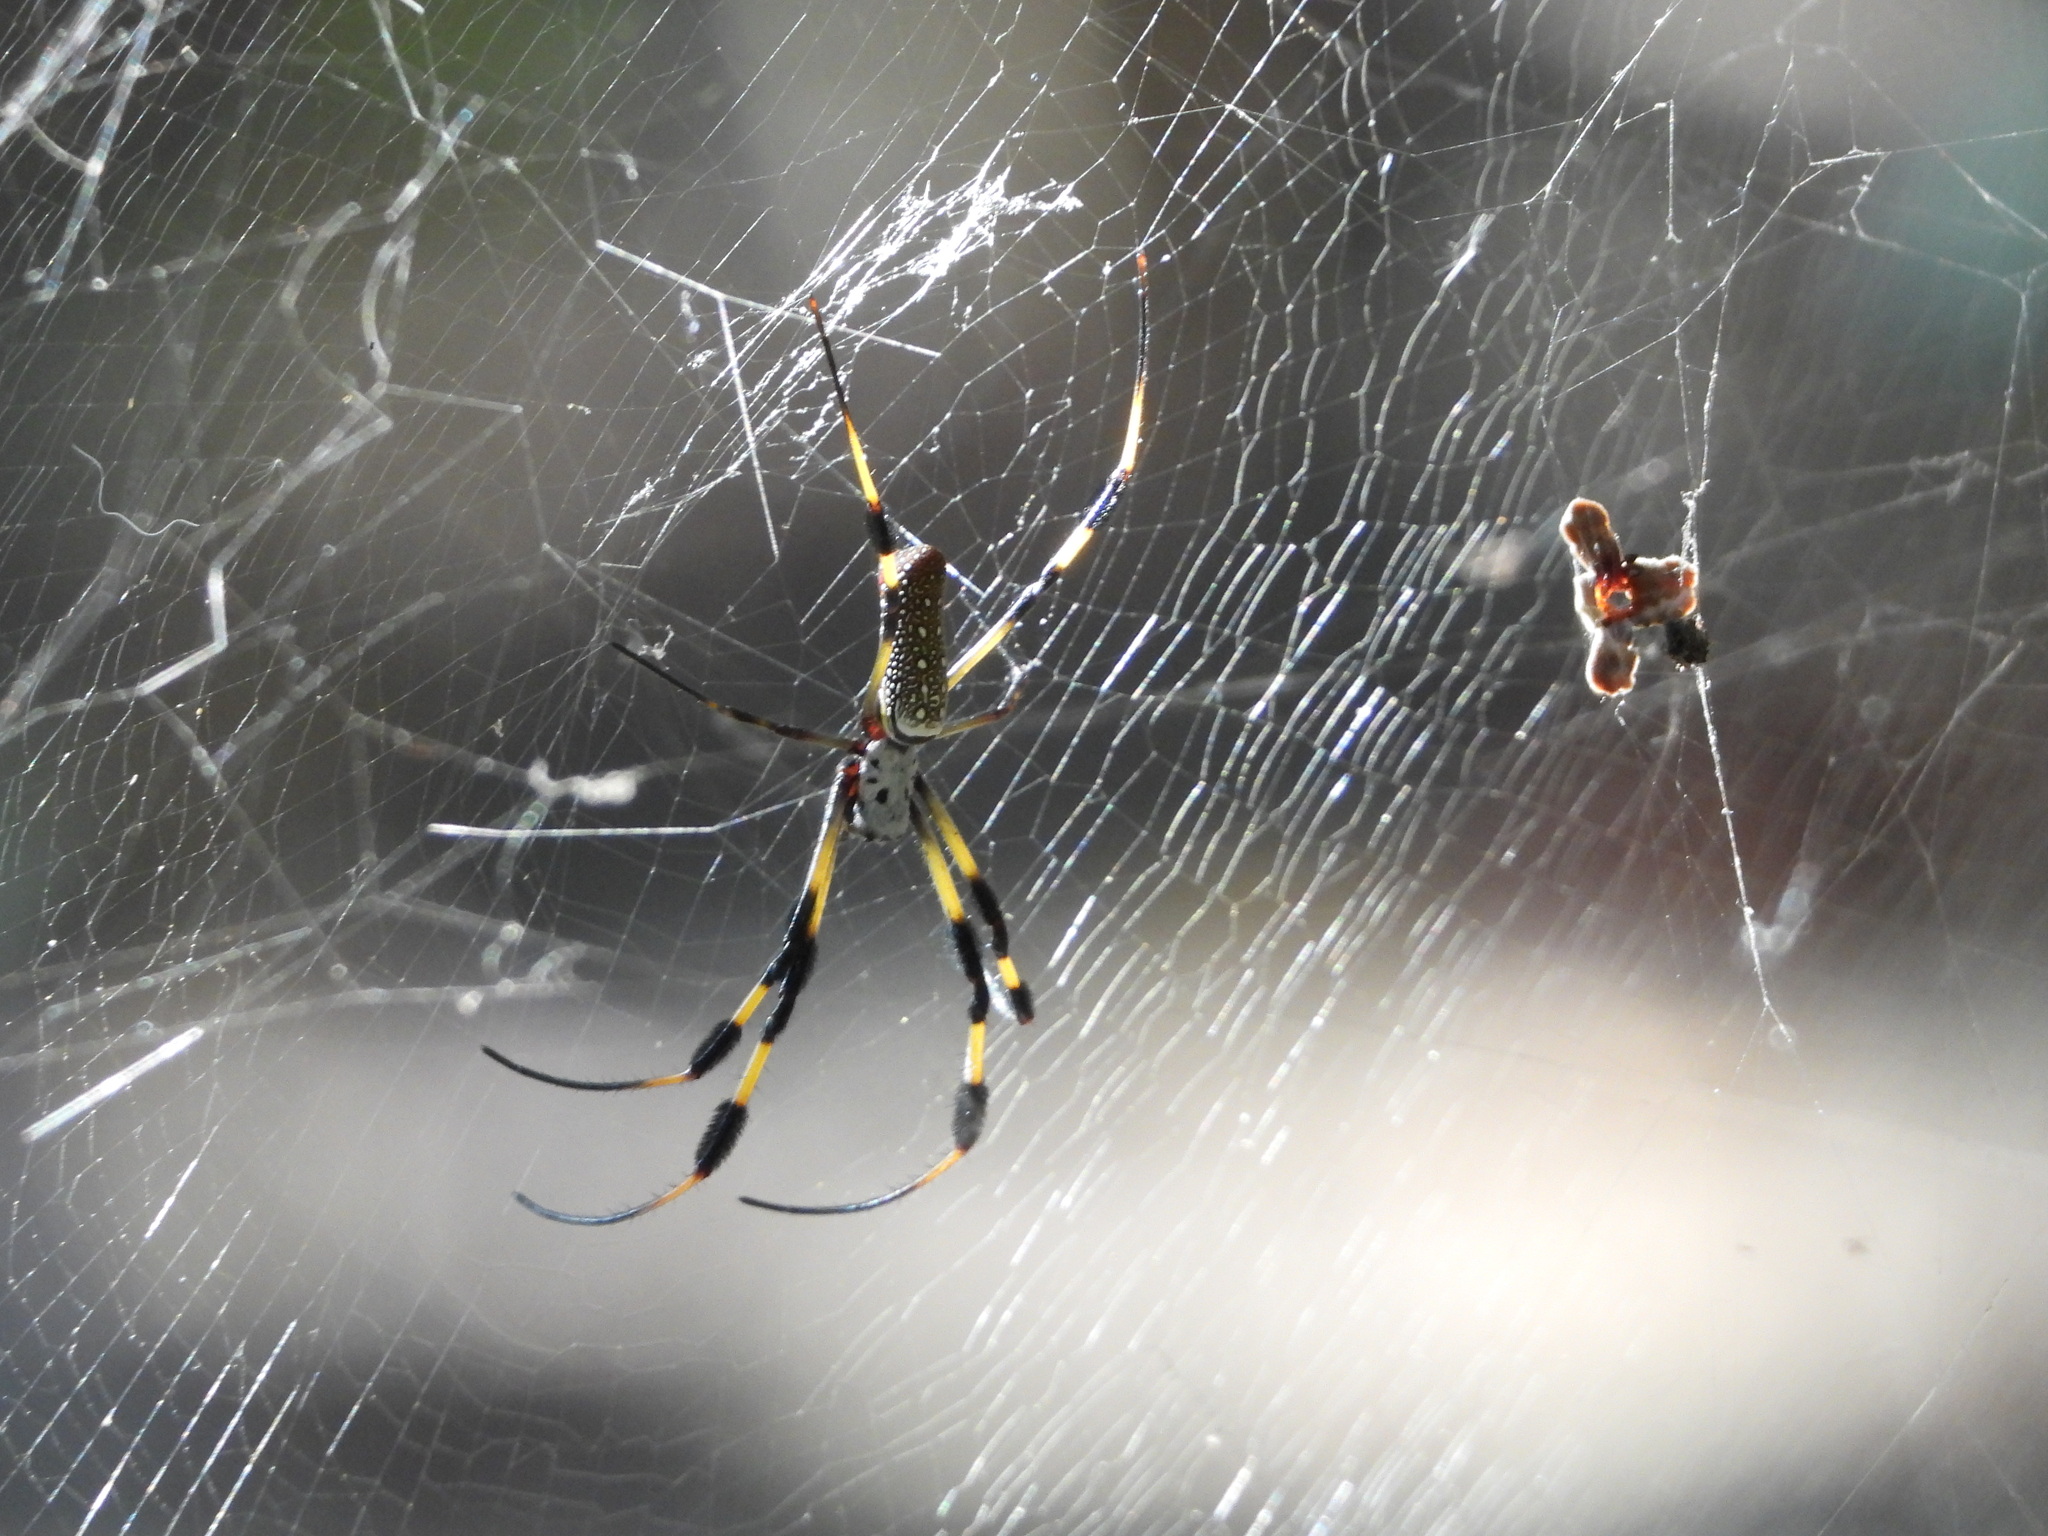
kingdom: Animalia
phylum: Arthropoda
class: Arachnida
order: Araneae
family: Araneidae
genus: Trichonephila
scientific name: Trichonephila clavipes
